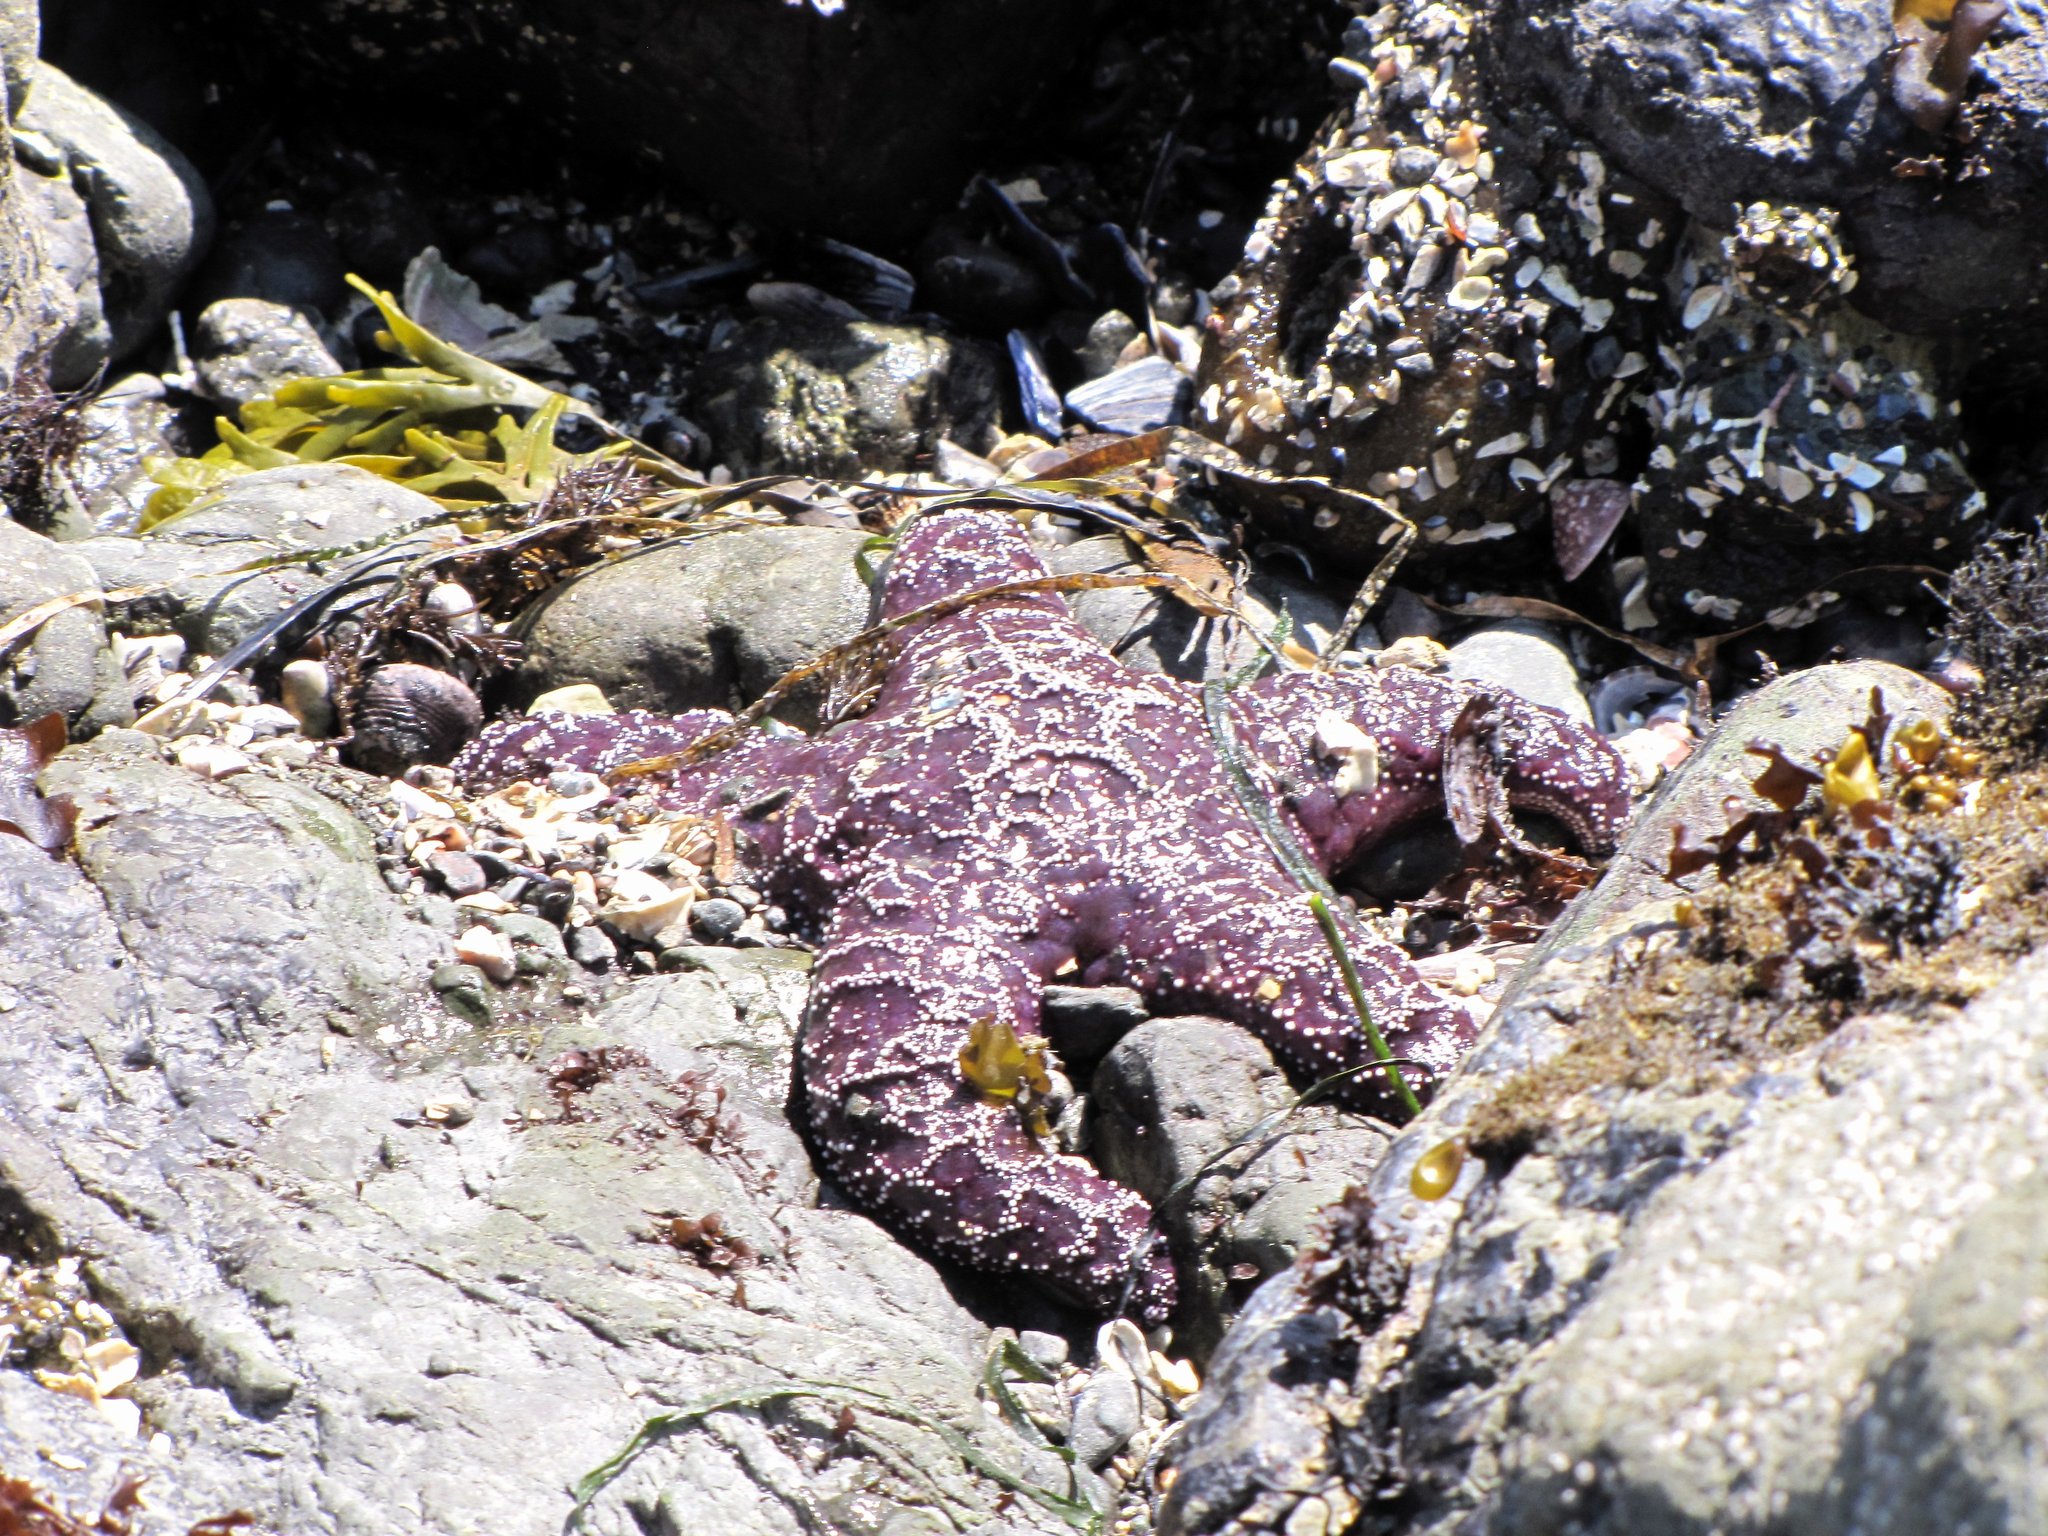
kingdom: Animalia
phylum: Echinodermata
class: Asteroidea
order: Forcipulatida
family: Asteriidae
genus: Pisaster
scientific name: Pisaster ochraceus
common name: Ochre stars
